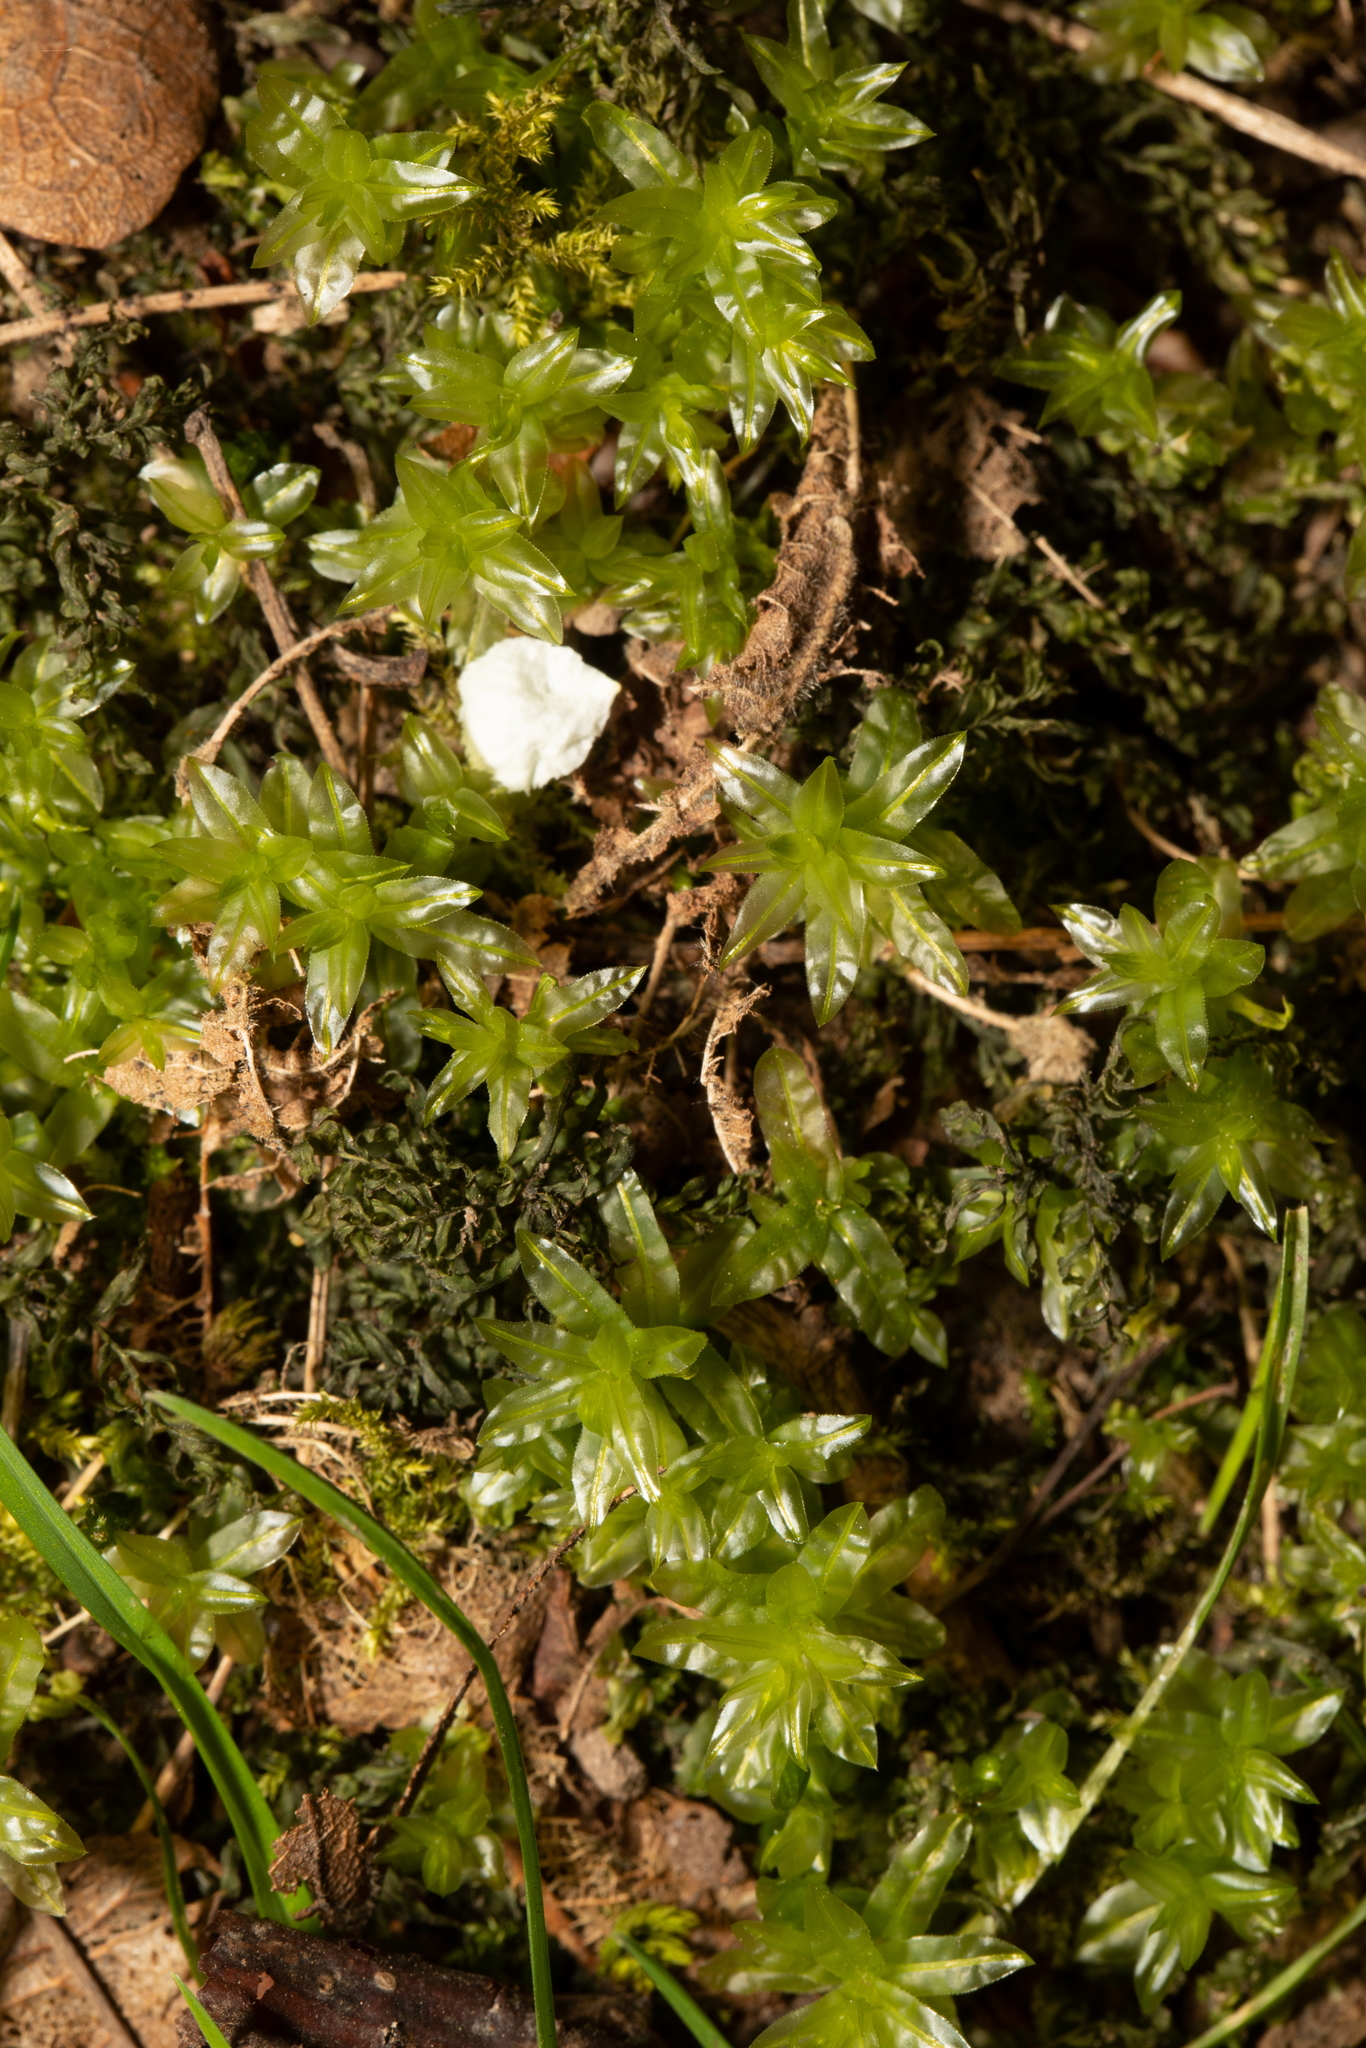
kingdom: Plantae
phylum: Bryophyta
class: Bryopsida
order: Bryales
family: Mniaceae
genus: Plagiomnium
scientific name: Plagiomnium undulatum
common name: Hart's-tongue thyme-moss
